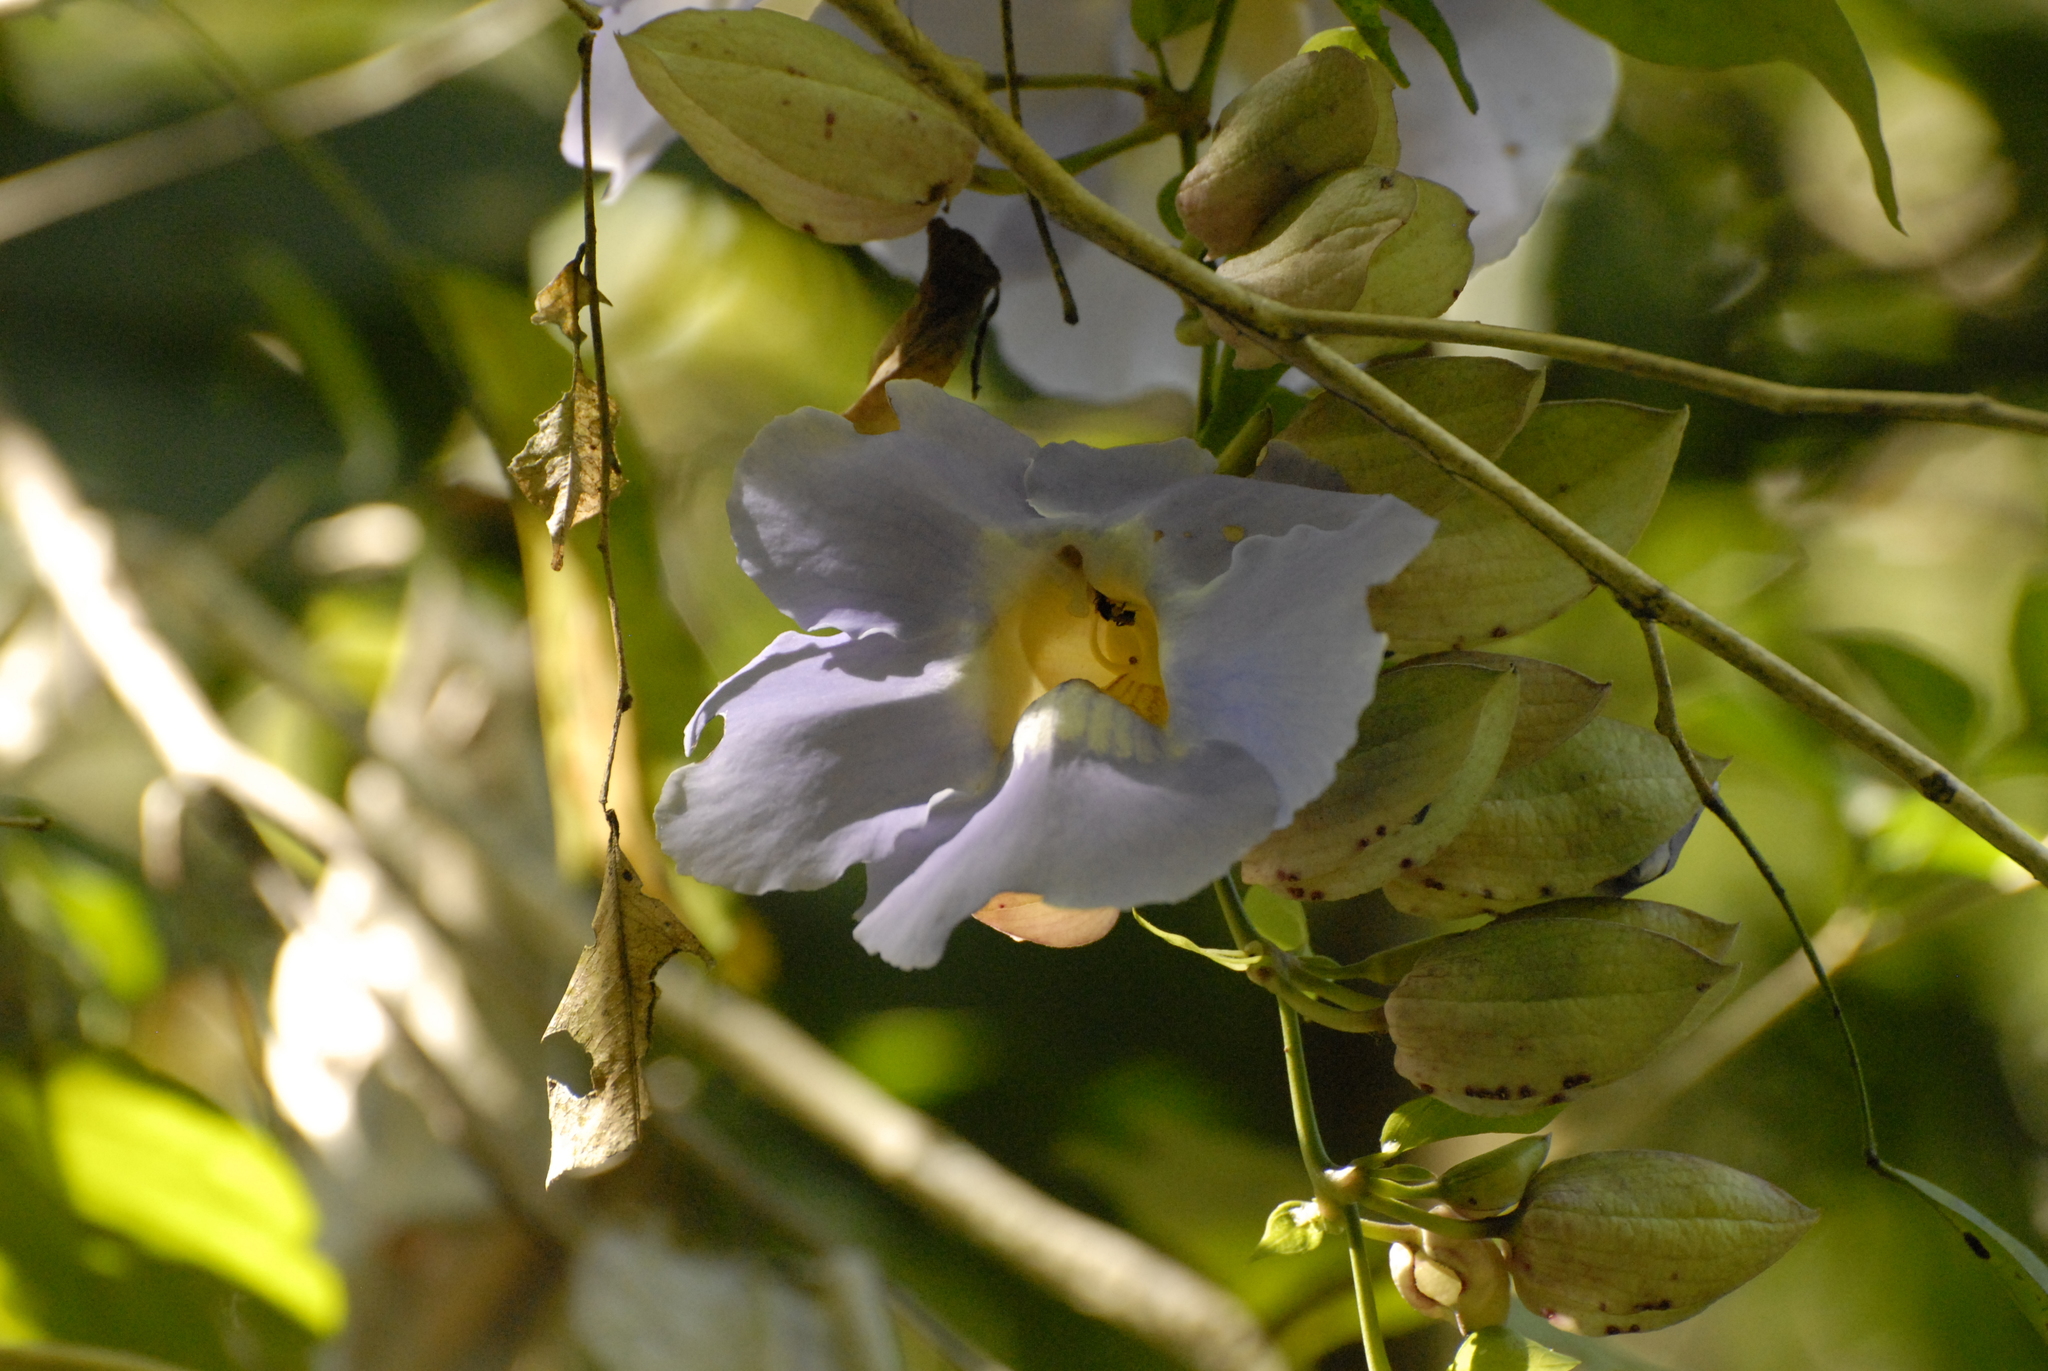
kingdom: Plantae
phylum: Tracheophyta
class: Magnoliopsida
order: Lamiales
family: Acanthaceae
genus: Thunbergia
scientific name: Thunbergia laurifolia
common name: Laurel-leaved thunbergia
